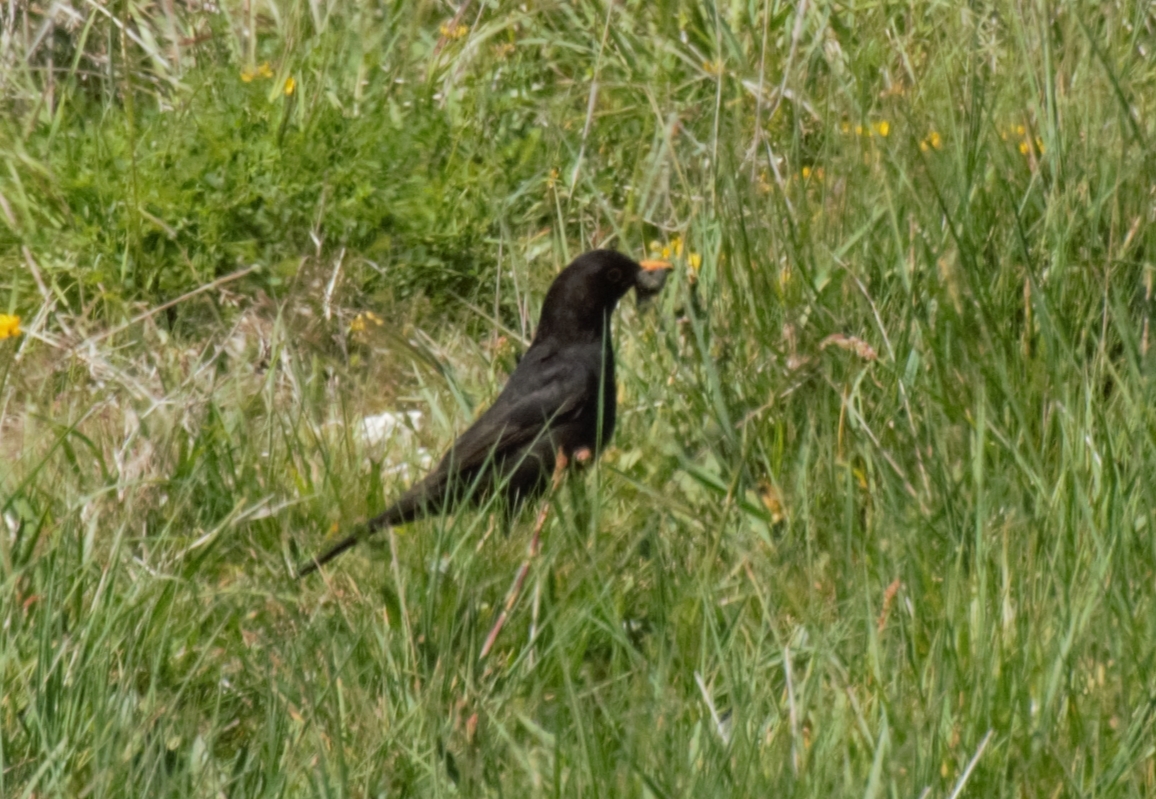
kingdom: Animalia
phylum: Chordata
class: Aves
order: Passeriformes
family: Turdidae
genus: Turdus
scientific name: Turdus merula
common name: Common blackbird
